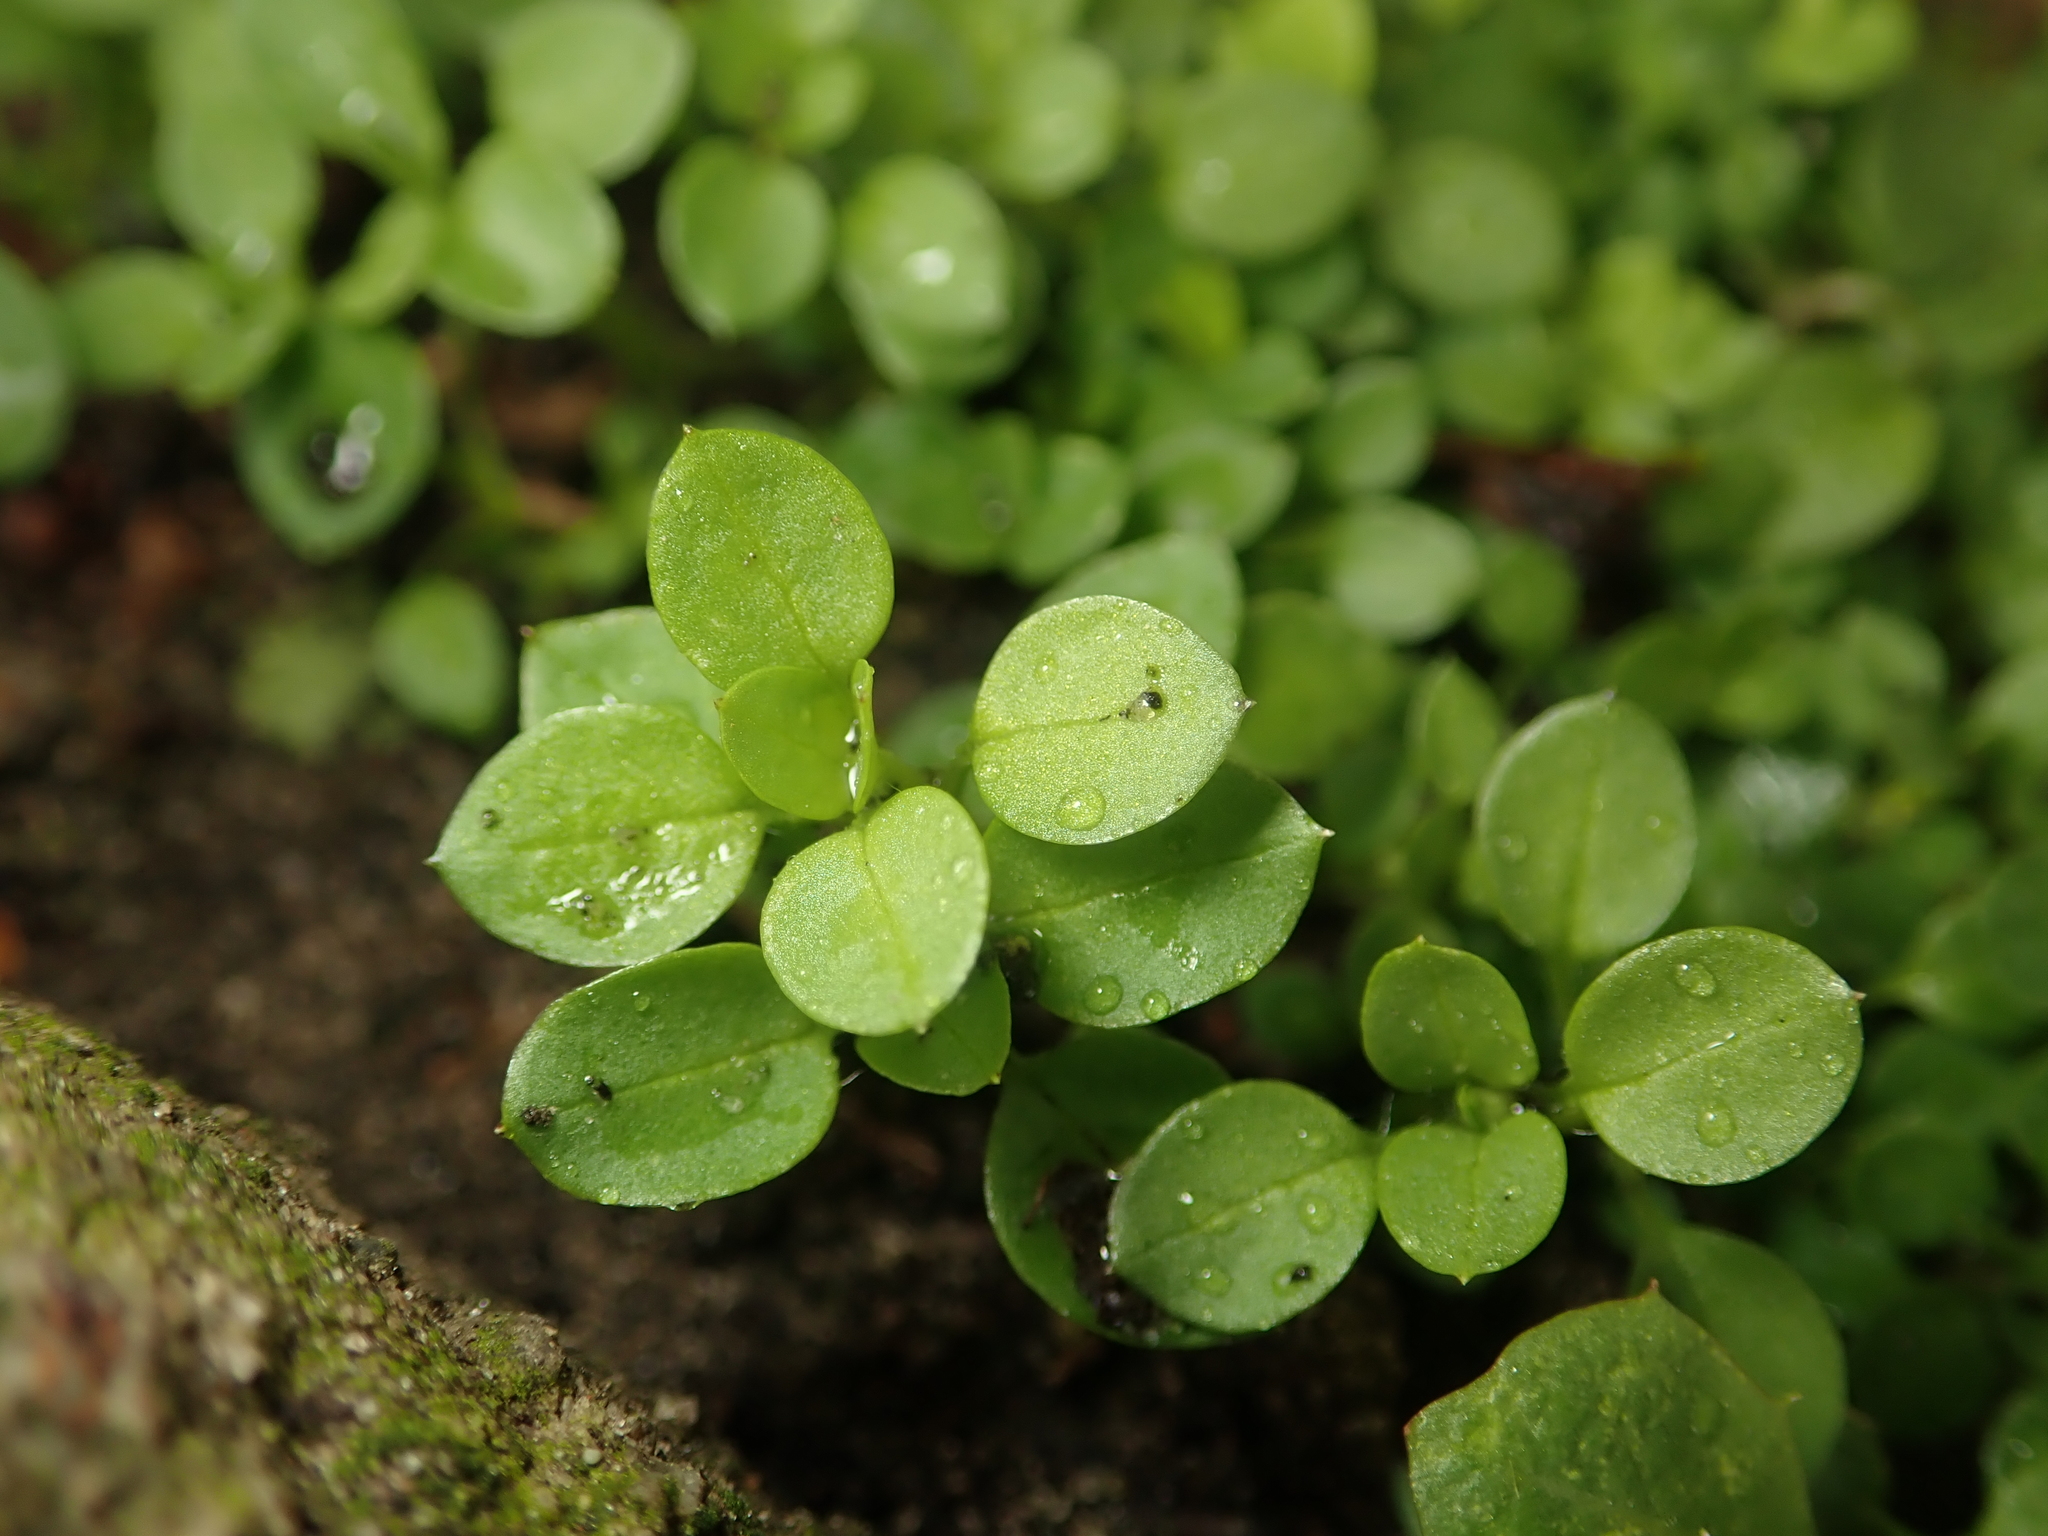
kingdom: Plantae
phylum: Tracheophyta
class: Magnoliopsida
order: Caryophyllales
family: Caryophyllaceae
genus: Stellaria
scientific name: Stellaria media
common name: Common chickweed
